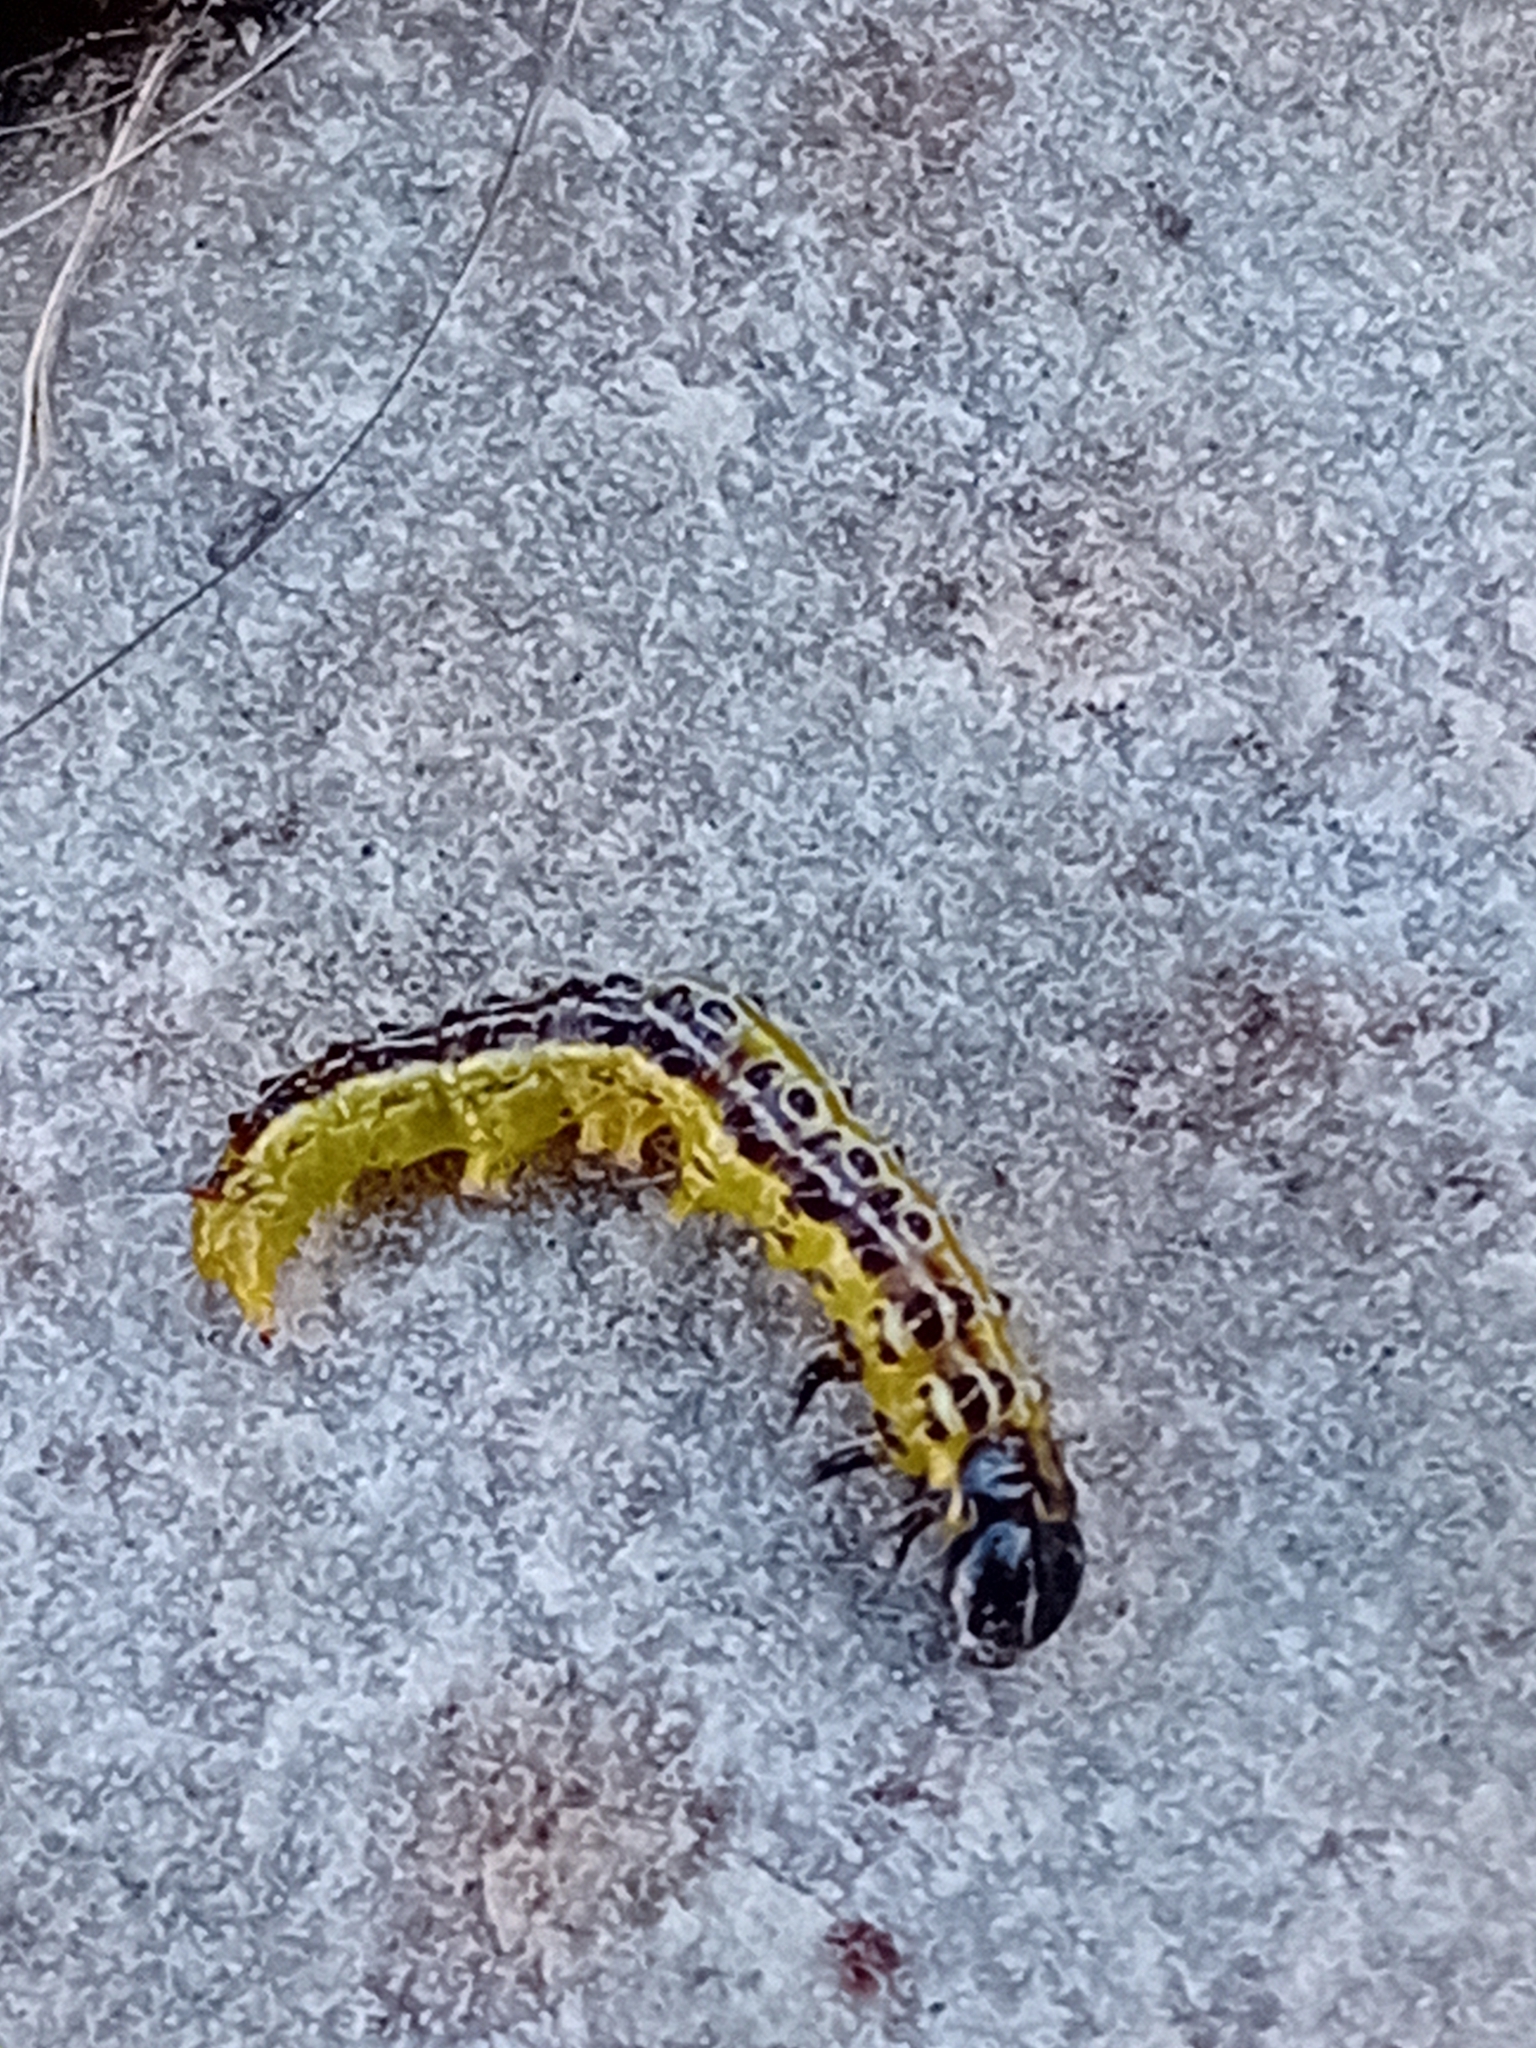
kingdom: Animalia
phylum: Arthropoda
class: Insecta
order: Lepidoptera
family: Crambidae
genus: Cydalima
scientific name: Cydalima perspectalis
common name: Box tree moth
